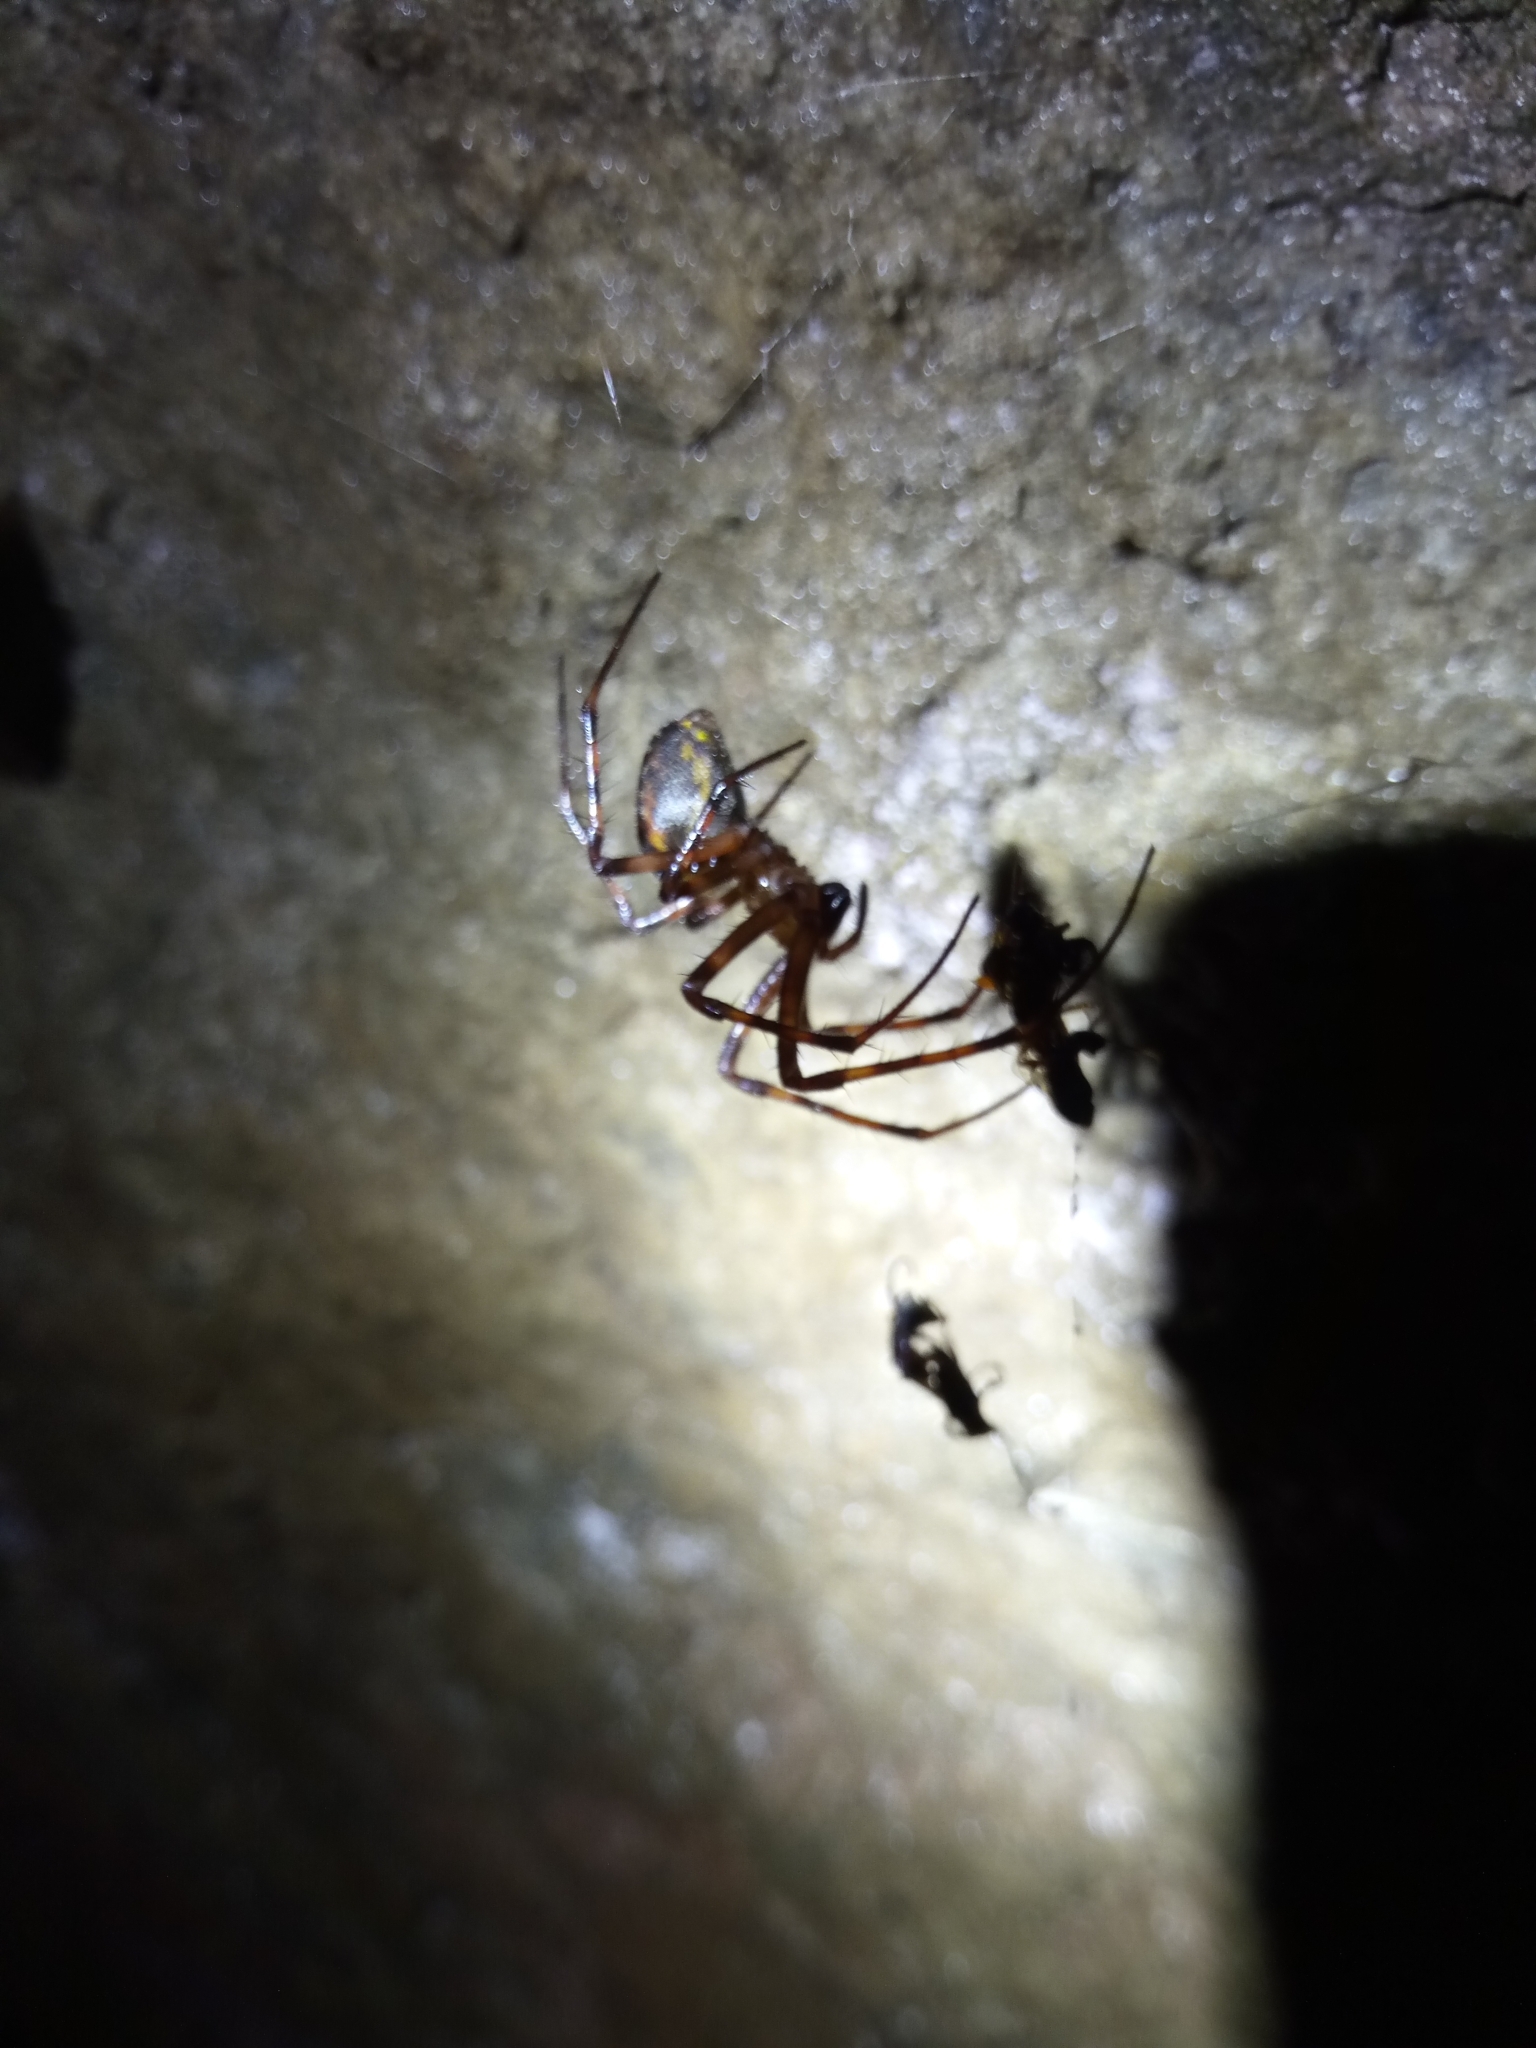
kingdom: Animalia
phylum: Arthropoda
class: Arachnida
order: Araneae
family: Tetragnathidae
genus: Meta
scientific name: Meta menardi
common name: Cave spider
